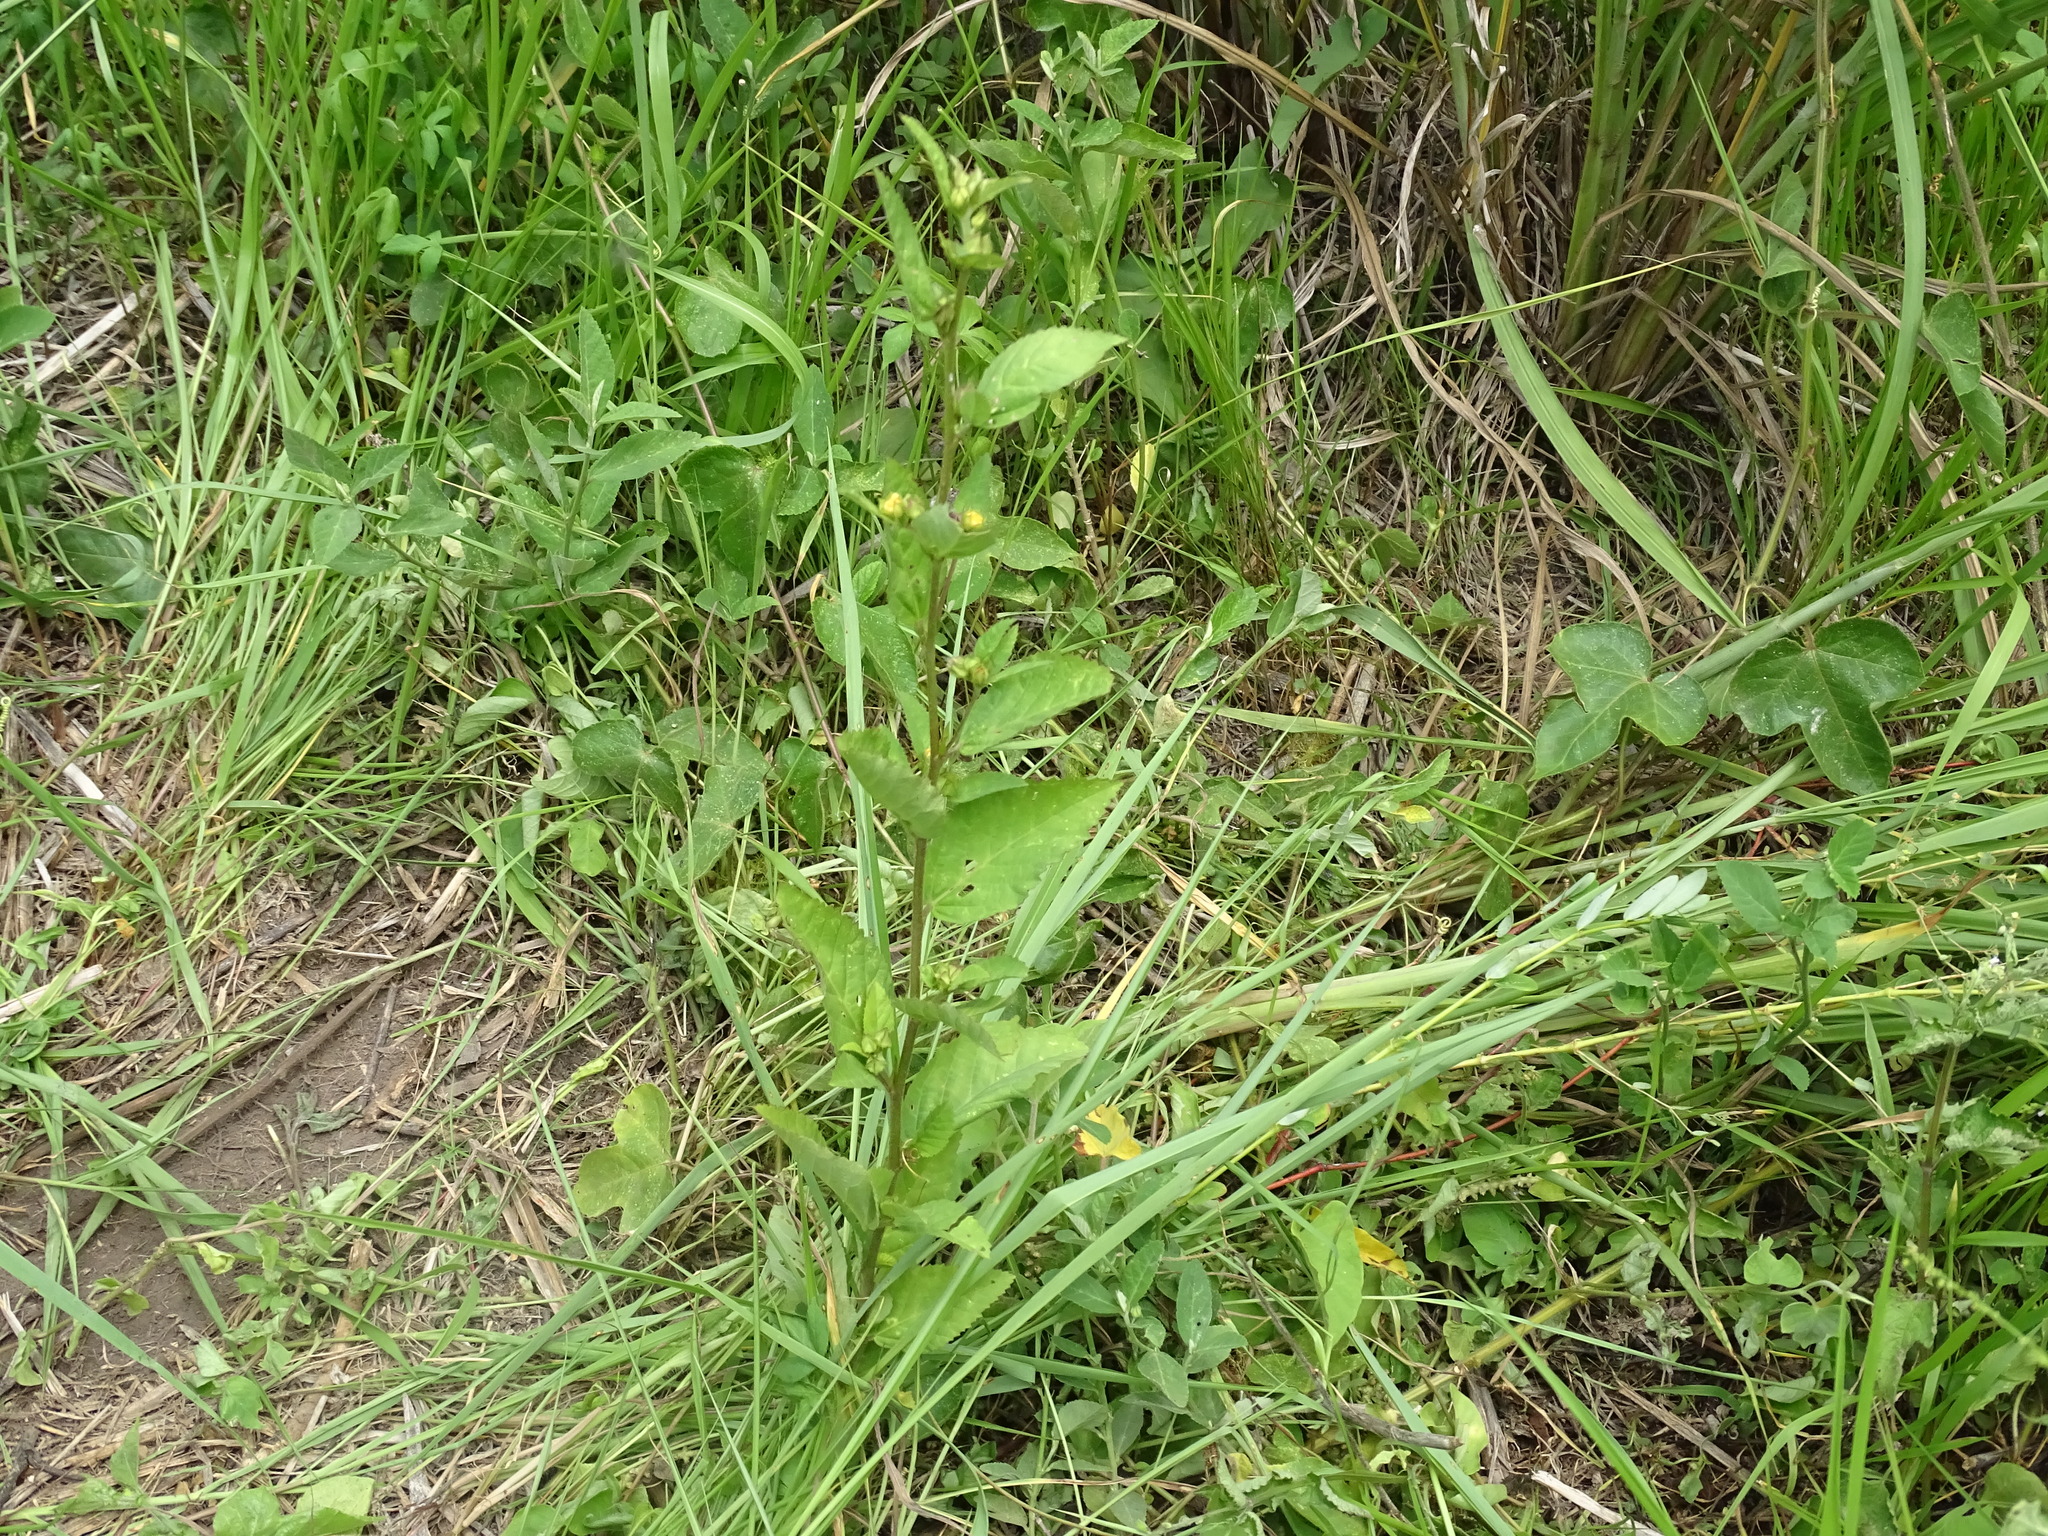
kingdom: Plantae
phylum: Tracheophyta
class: Magnoliopsida
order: Malvales
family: Malvaceae
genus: Sida
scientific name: Sida acuta
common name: Common wireweed
